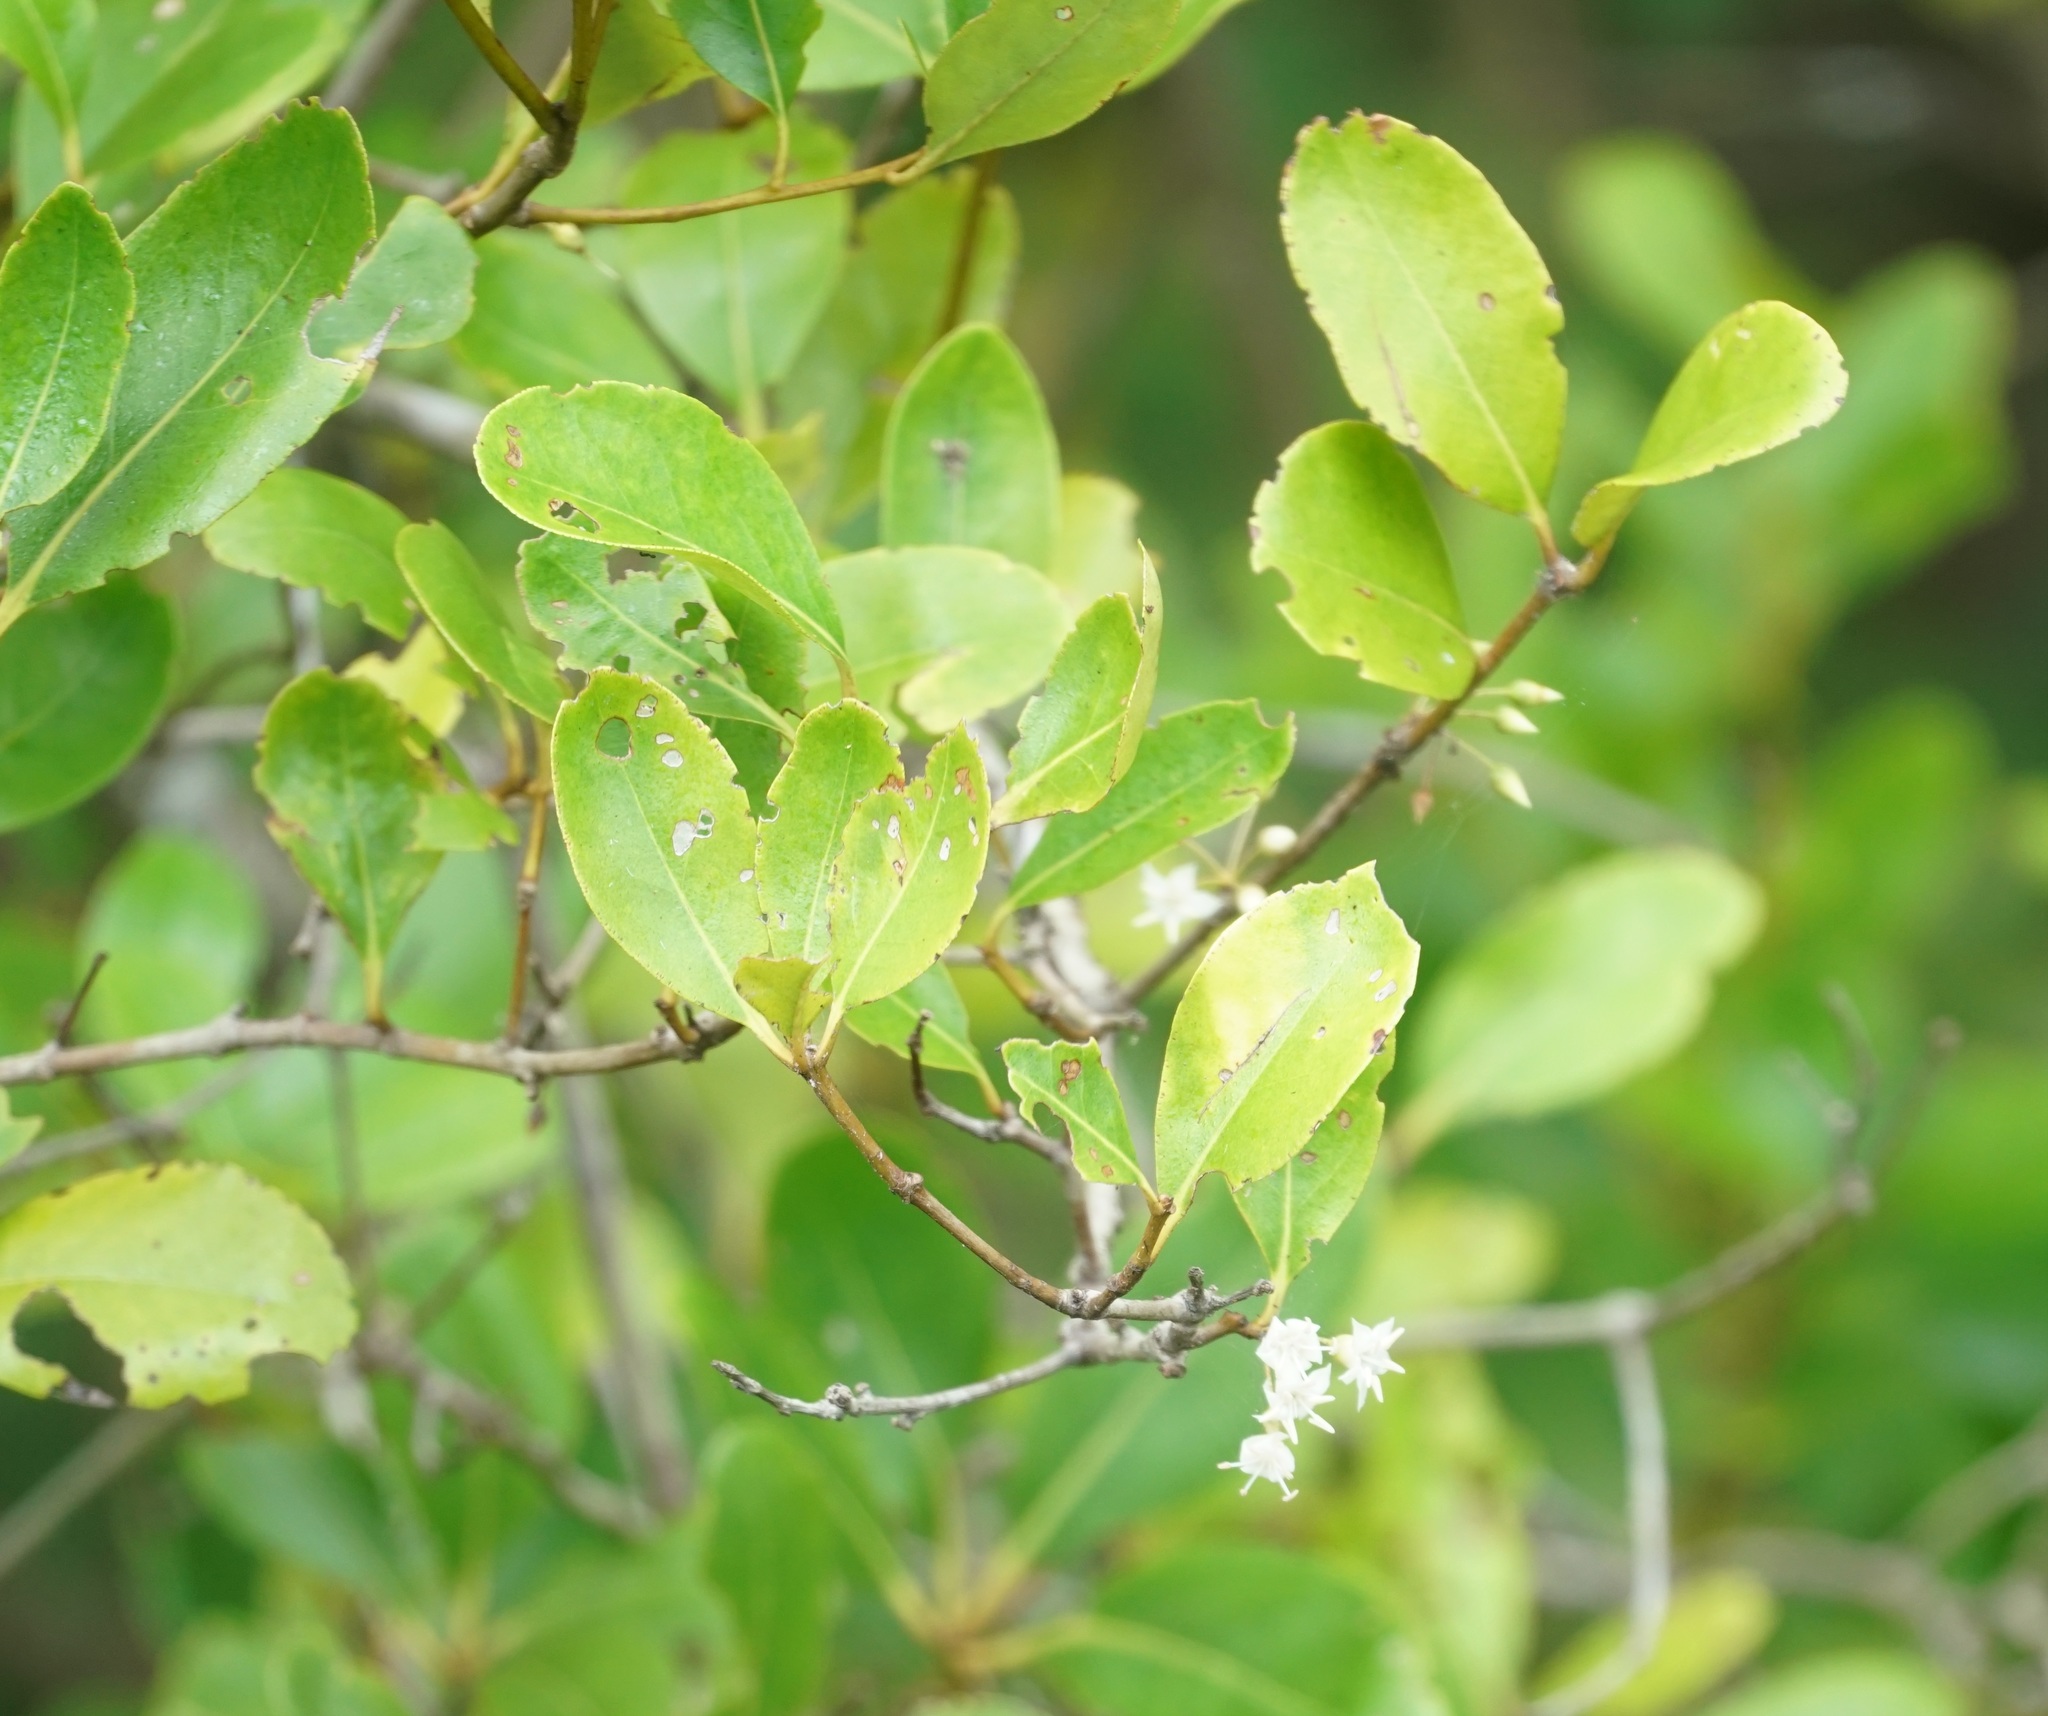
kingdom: Plantae
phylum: Tracheophyta
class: Magnoliopsida
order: Ericales
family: Primulaceae
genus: Aegiceras
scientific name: Aegiceras corniculatum
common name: River mangrove
